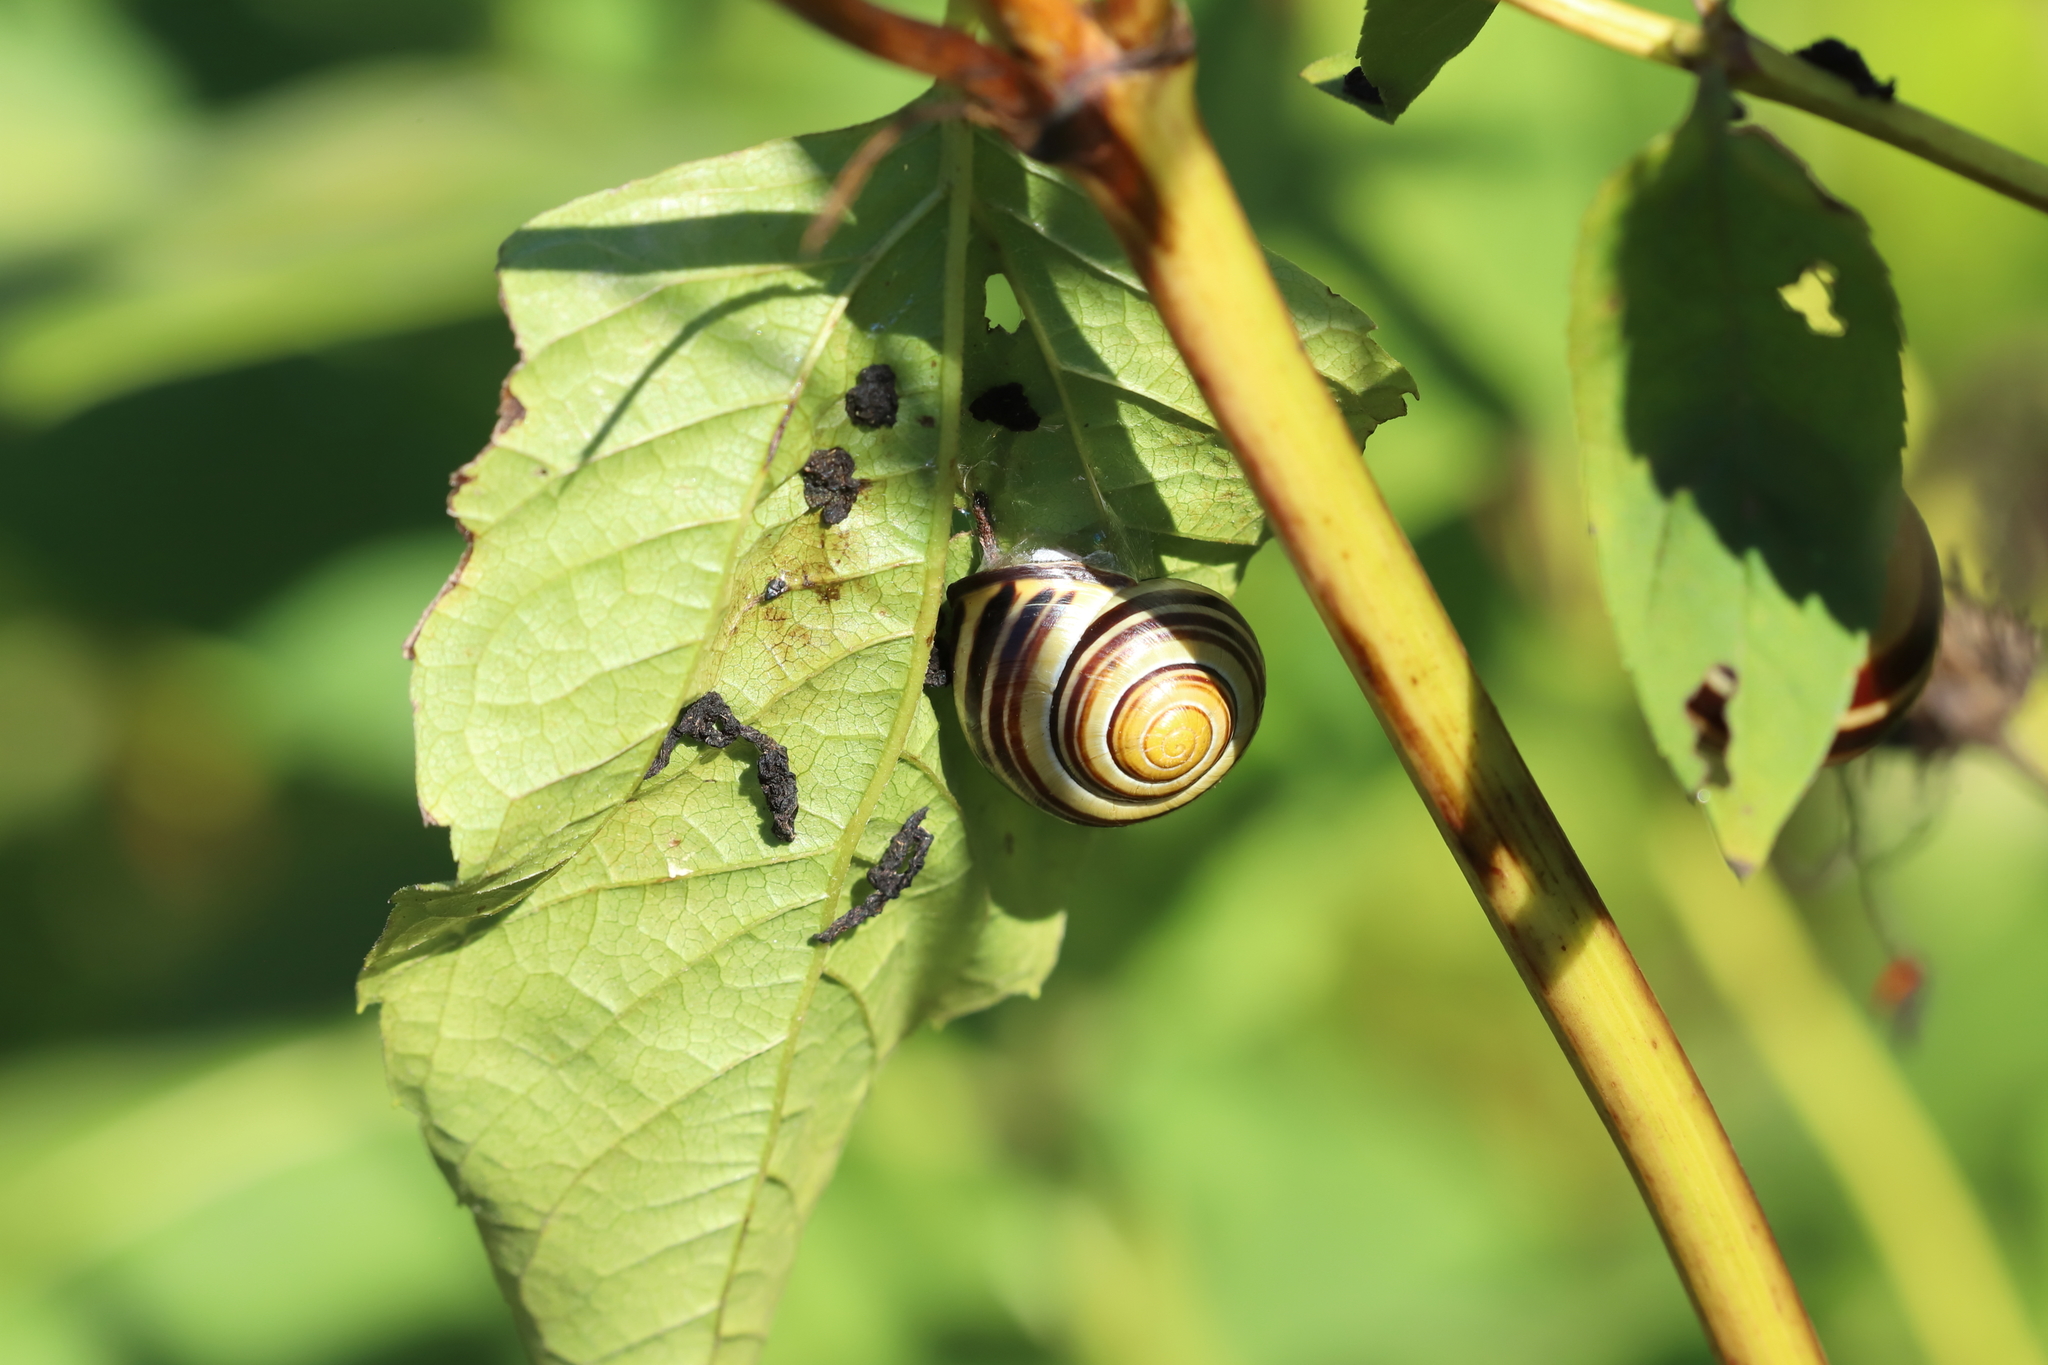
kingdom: Animalia
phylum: Mollusca
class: Gastropoda
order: Stylommatophora
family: Helicidae
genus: Cepaea
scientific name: Cepaea nemoralis
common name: Grovesnail
